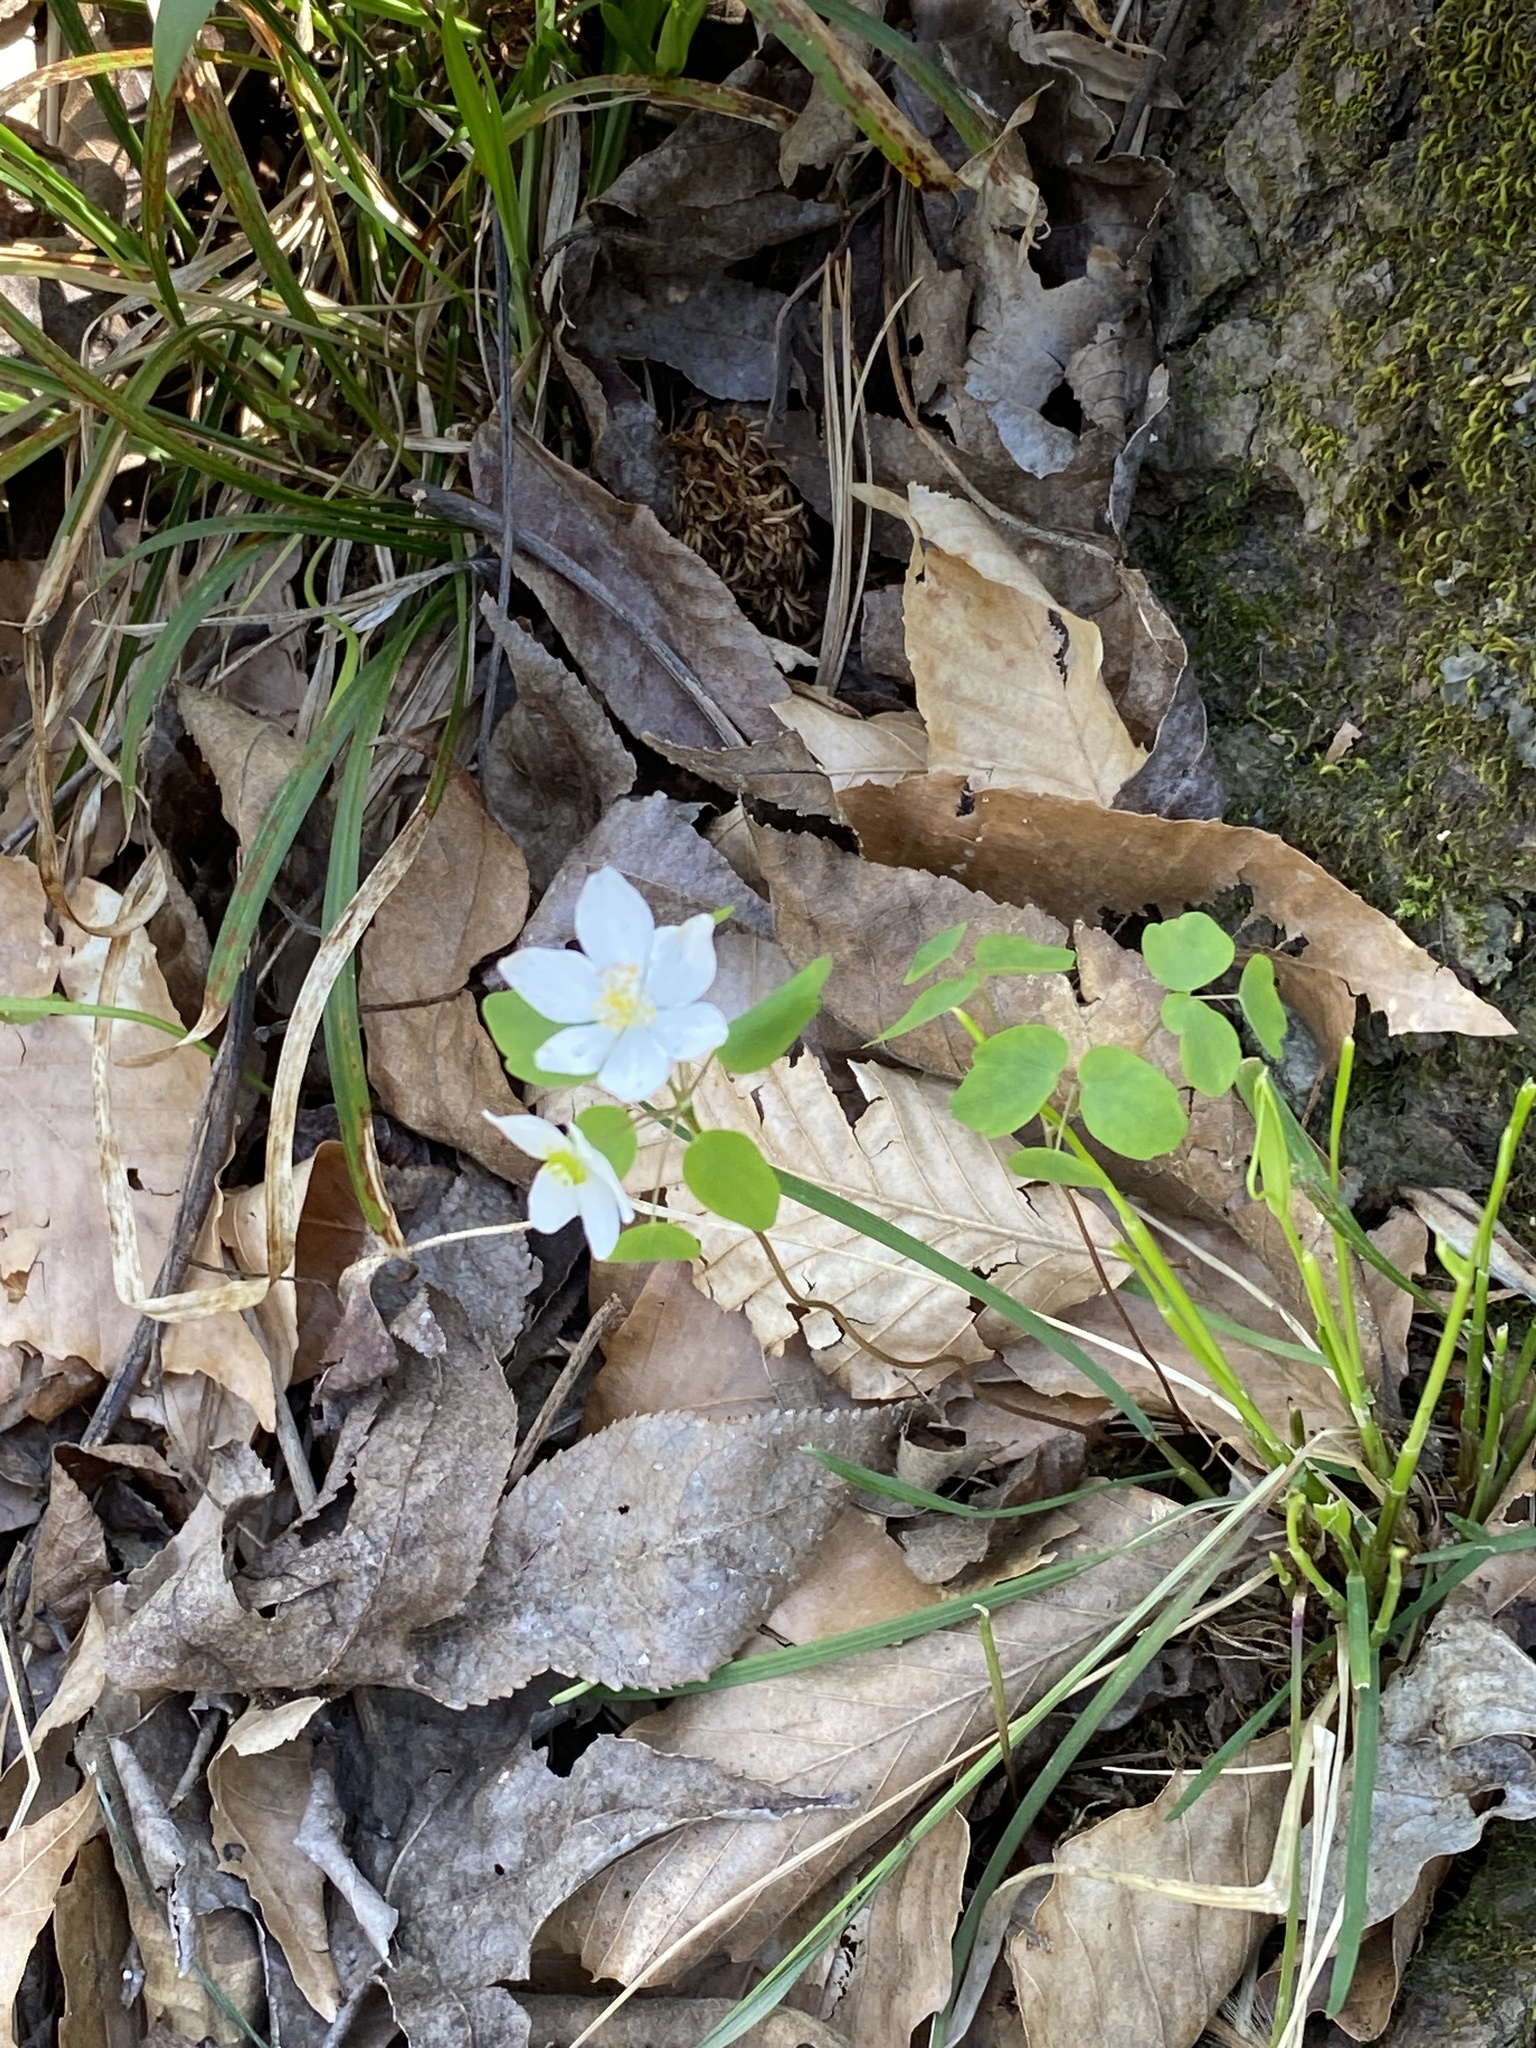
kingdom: Plantae
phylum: Tracheophyta
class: Magnoliopsida
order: Ranunculales
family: Ranunculaceae
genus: Thalictrum
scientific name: Thalictrum thalictroides
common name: Rue-anemone
